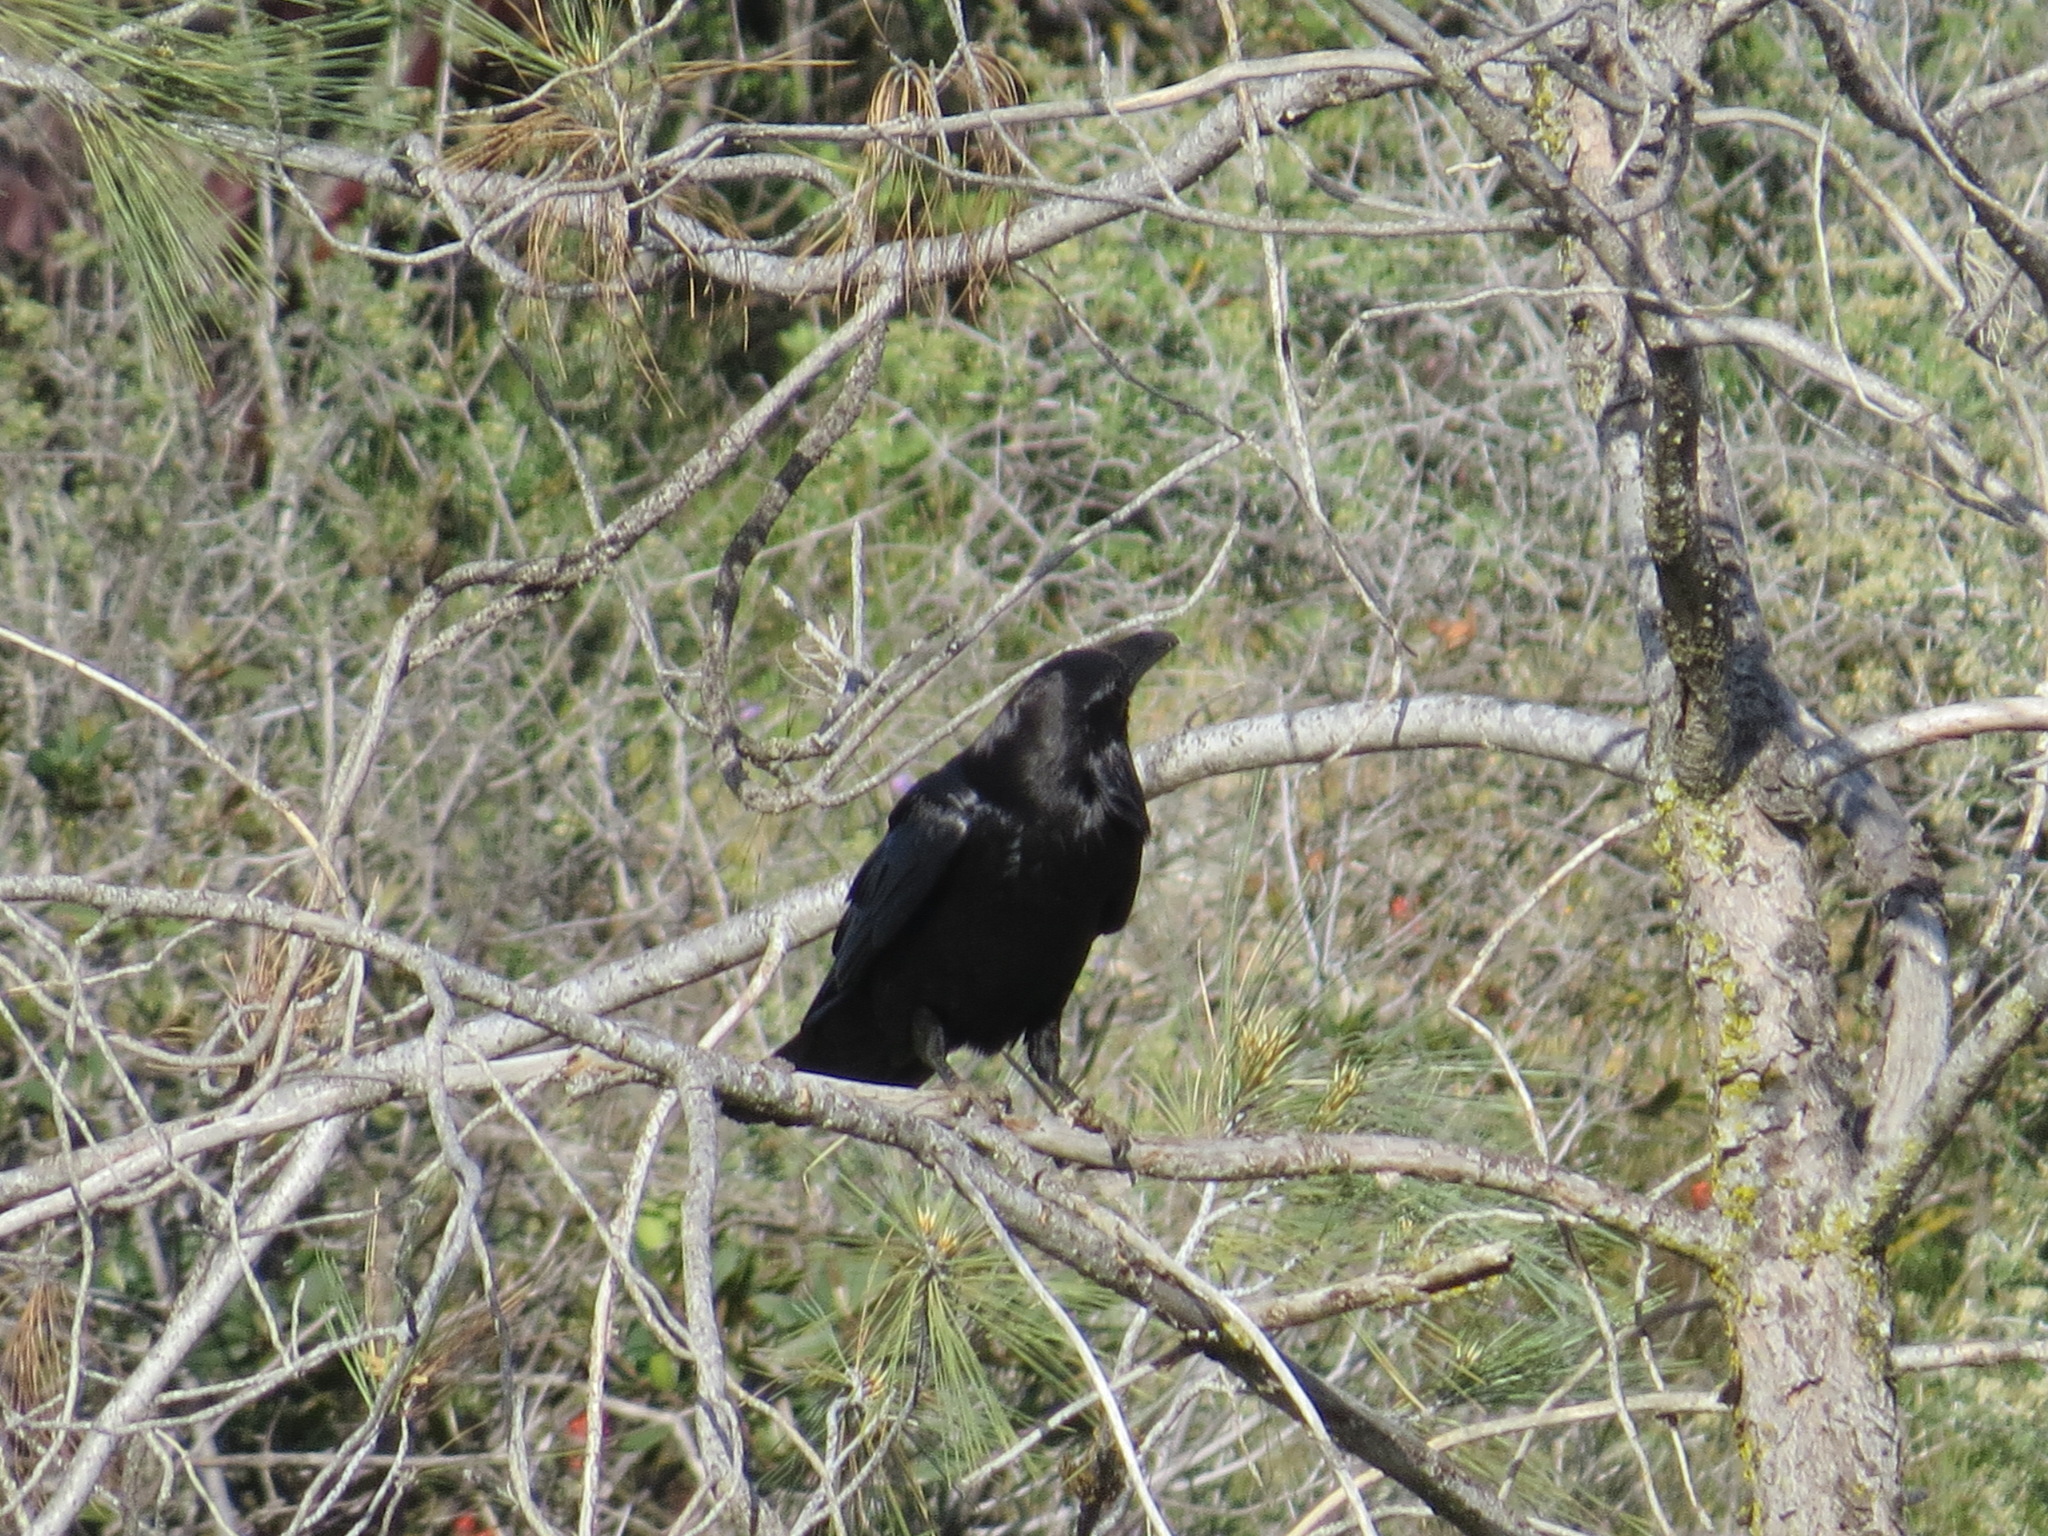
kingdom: Animalia
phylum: Chordata
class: Aves
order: Passeriformes
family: Corvidae
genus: Corvus
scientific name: Corvus corax
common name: Common raven
